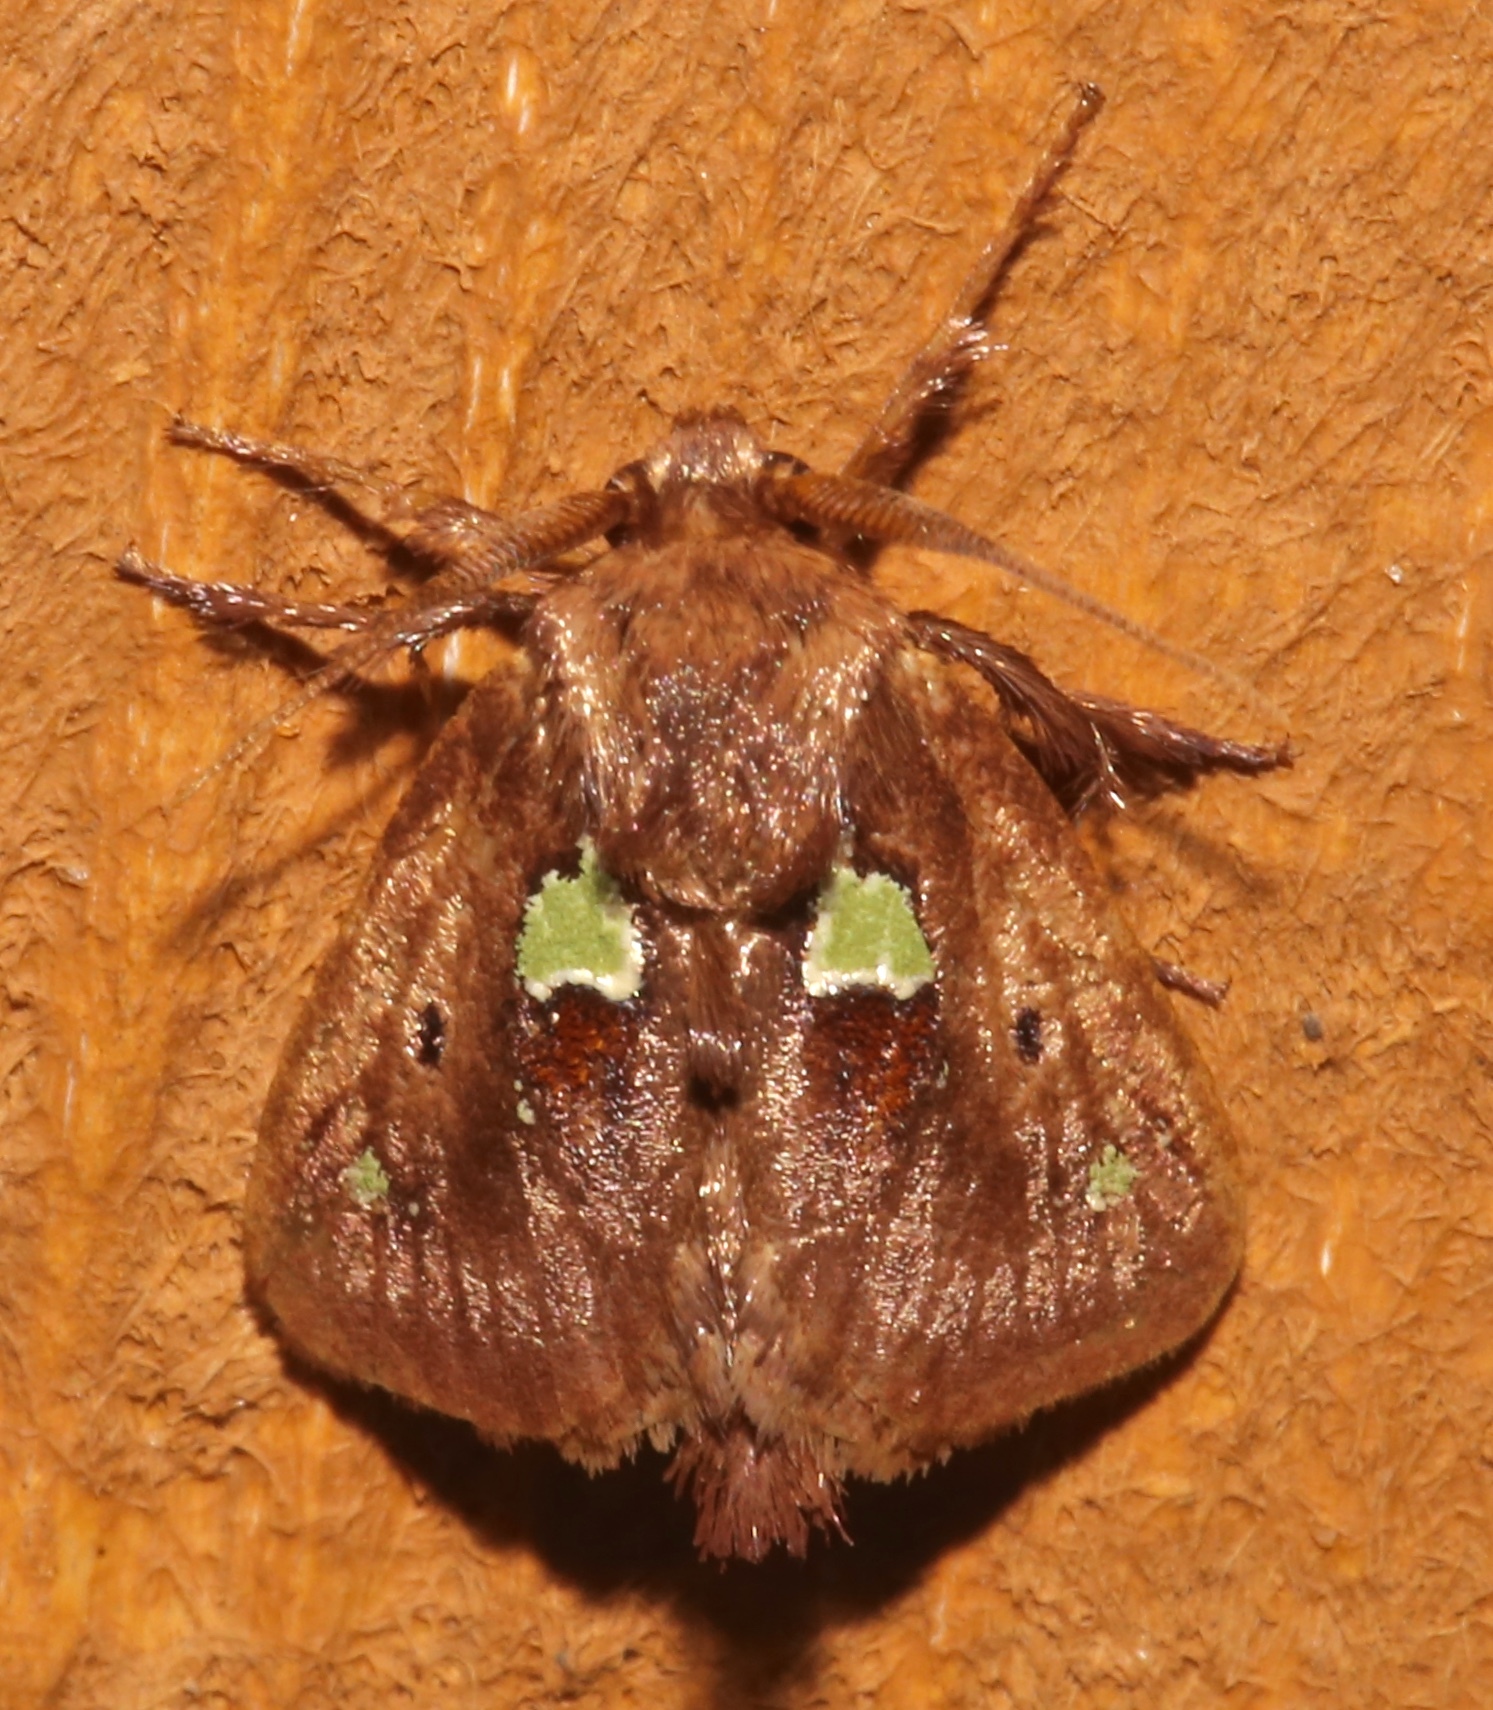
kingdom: Animalia
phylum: Arthropoda
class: Insecta
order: Lepidoptera
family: Limacodidae
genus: Euclea
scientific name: Euclea delphinii
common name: Spiny oak-slug moth
